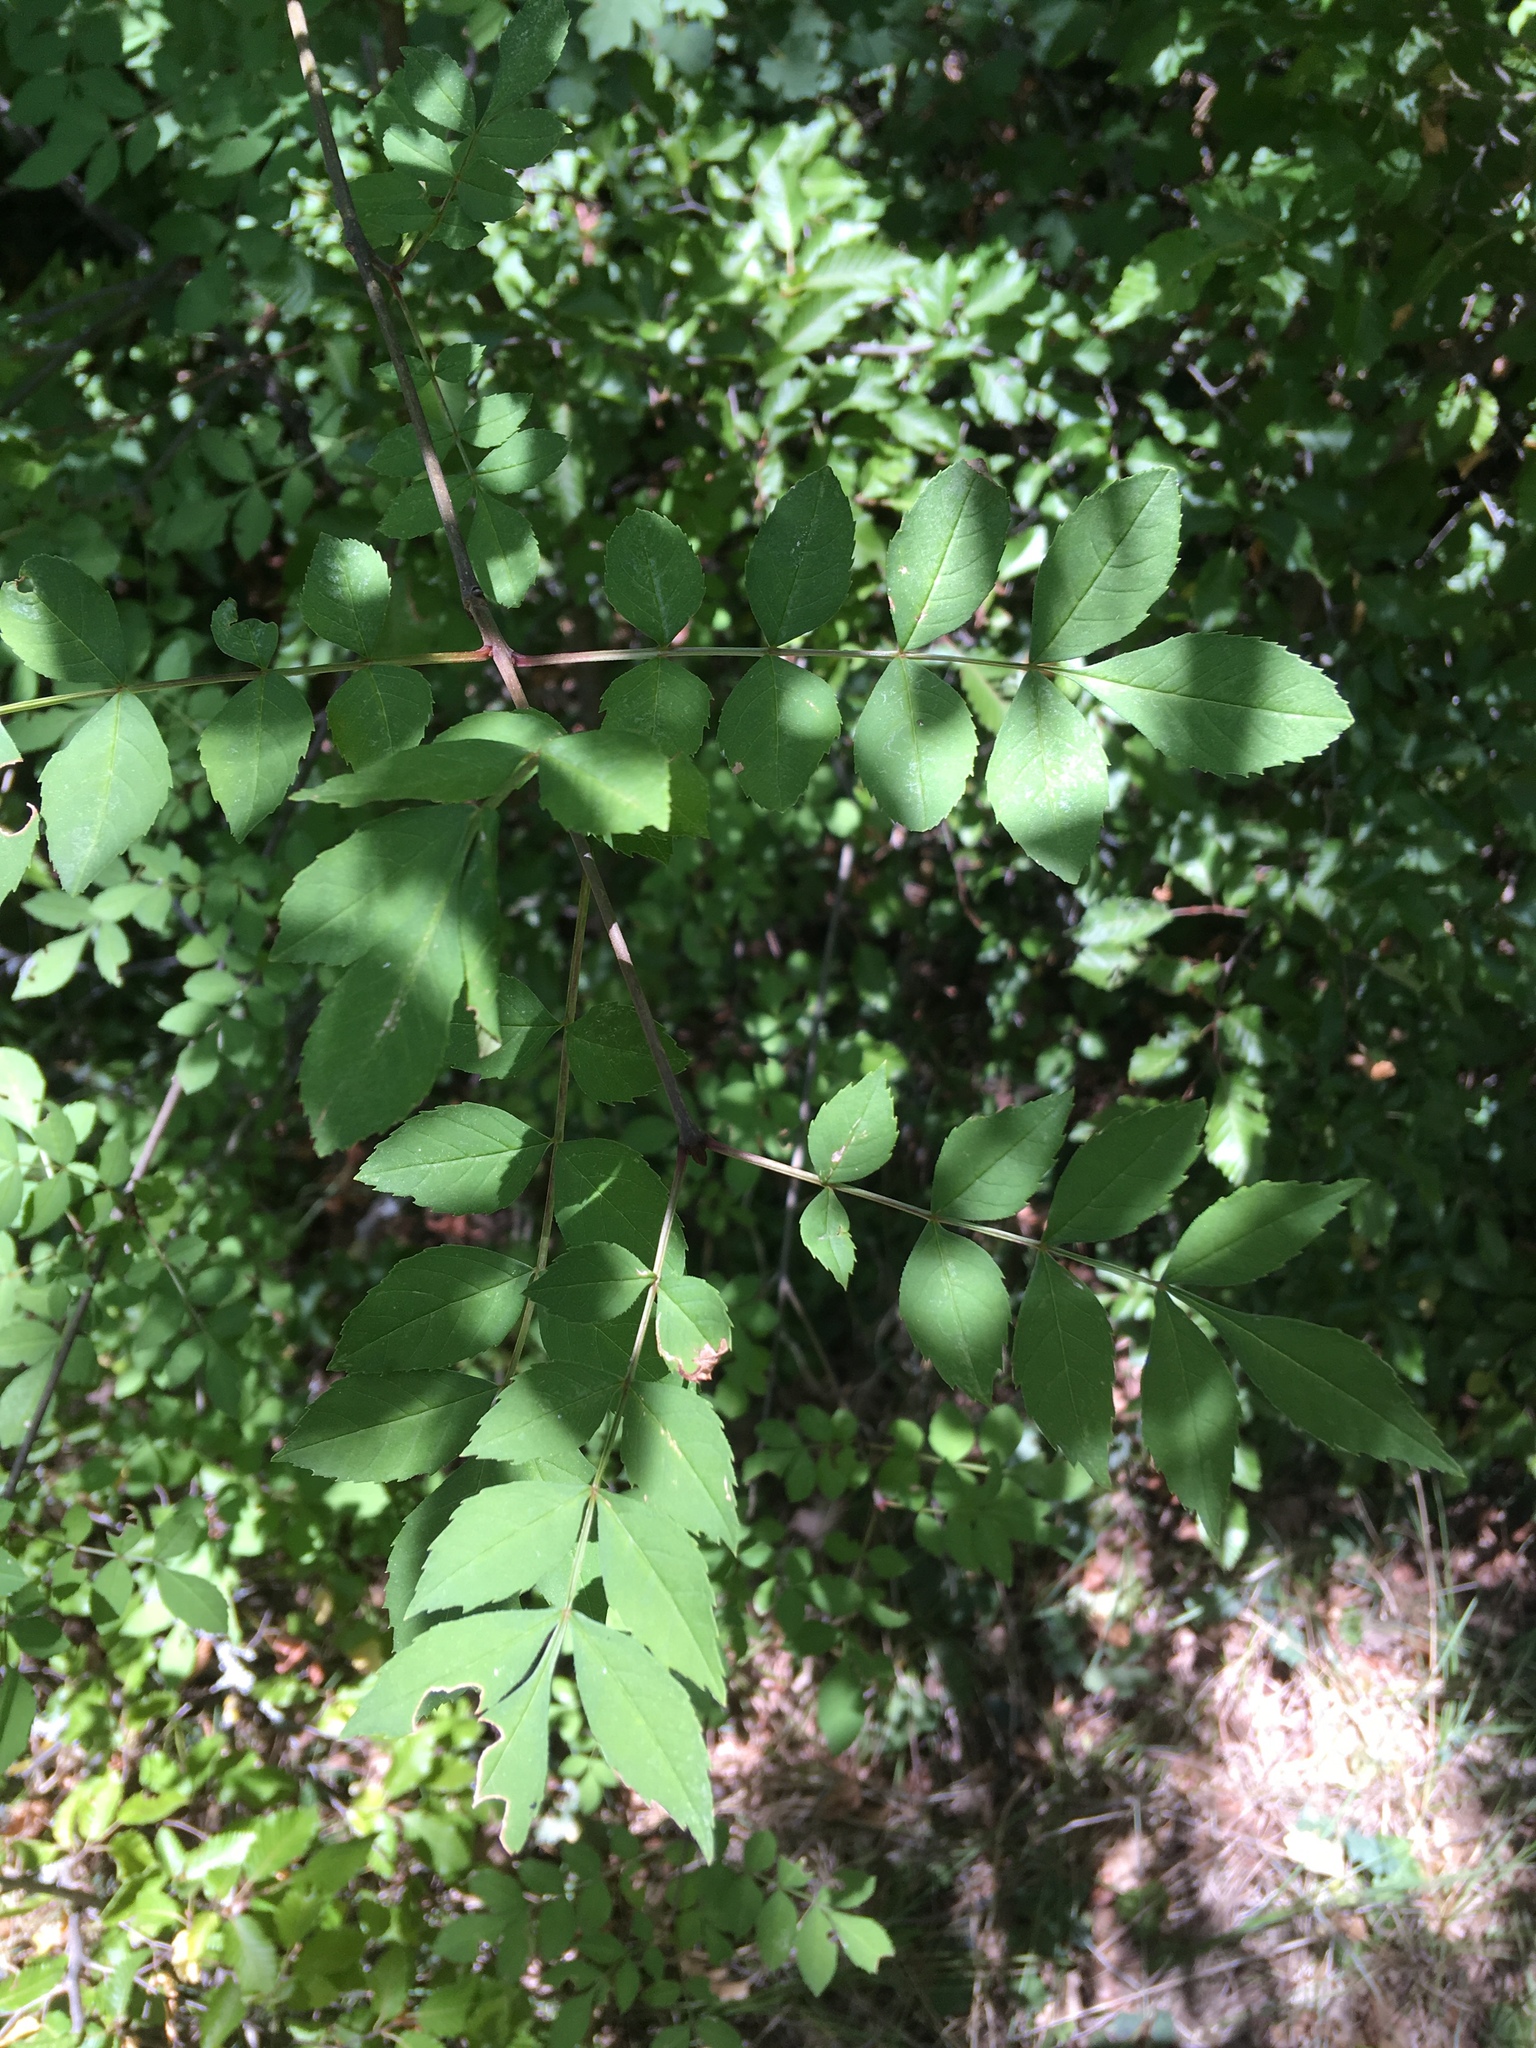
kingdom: Plantae
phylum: Tracheophyta
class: Magnoliopsida
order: Lamiales
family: Oleaceae
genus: Fraxinus
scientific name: Fraxinus excelsior
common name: European ash
